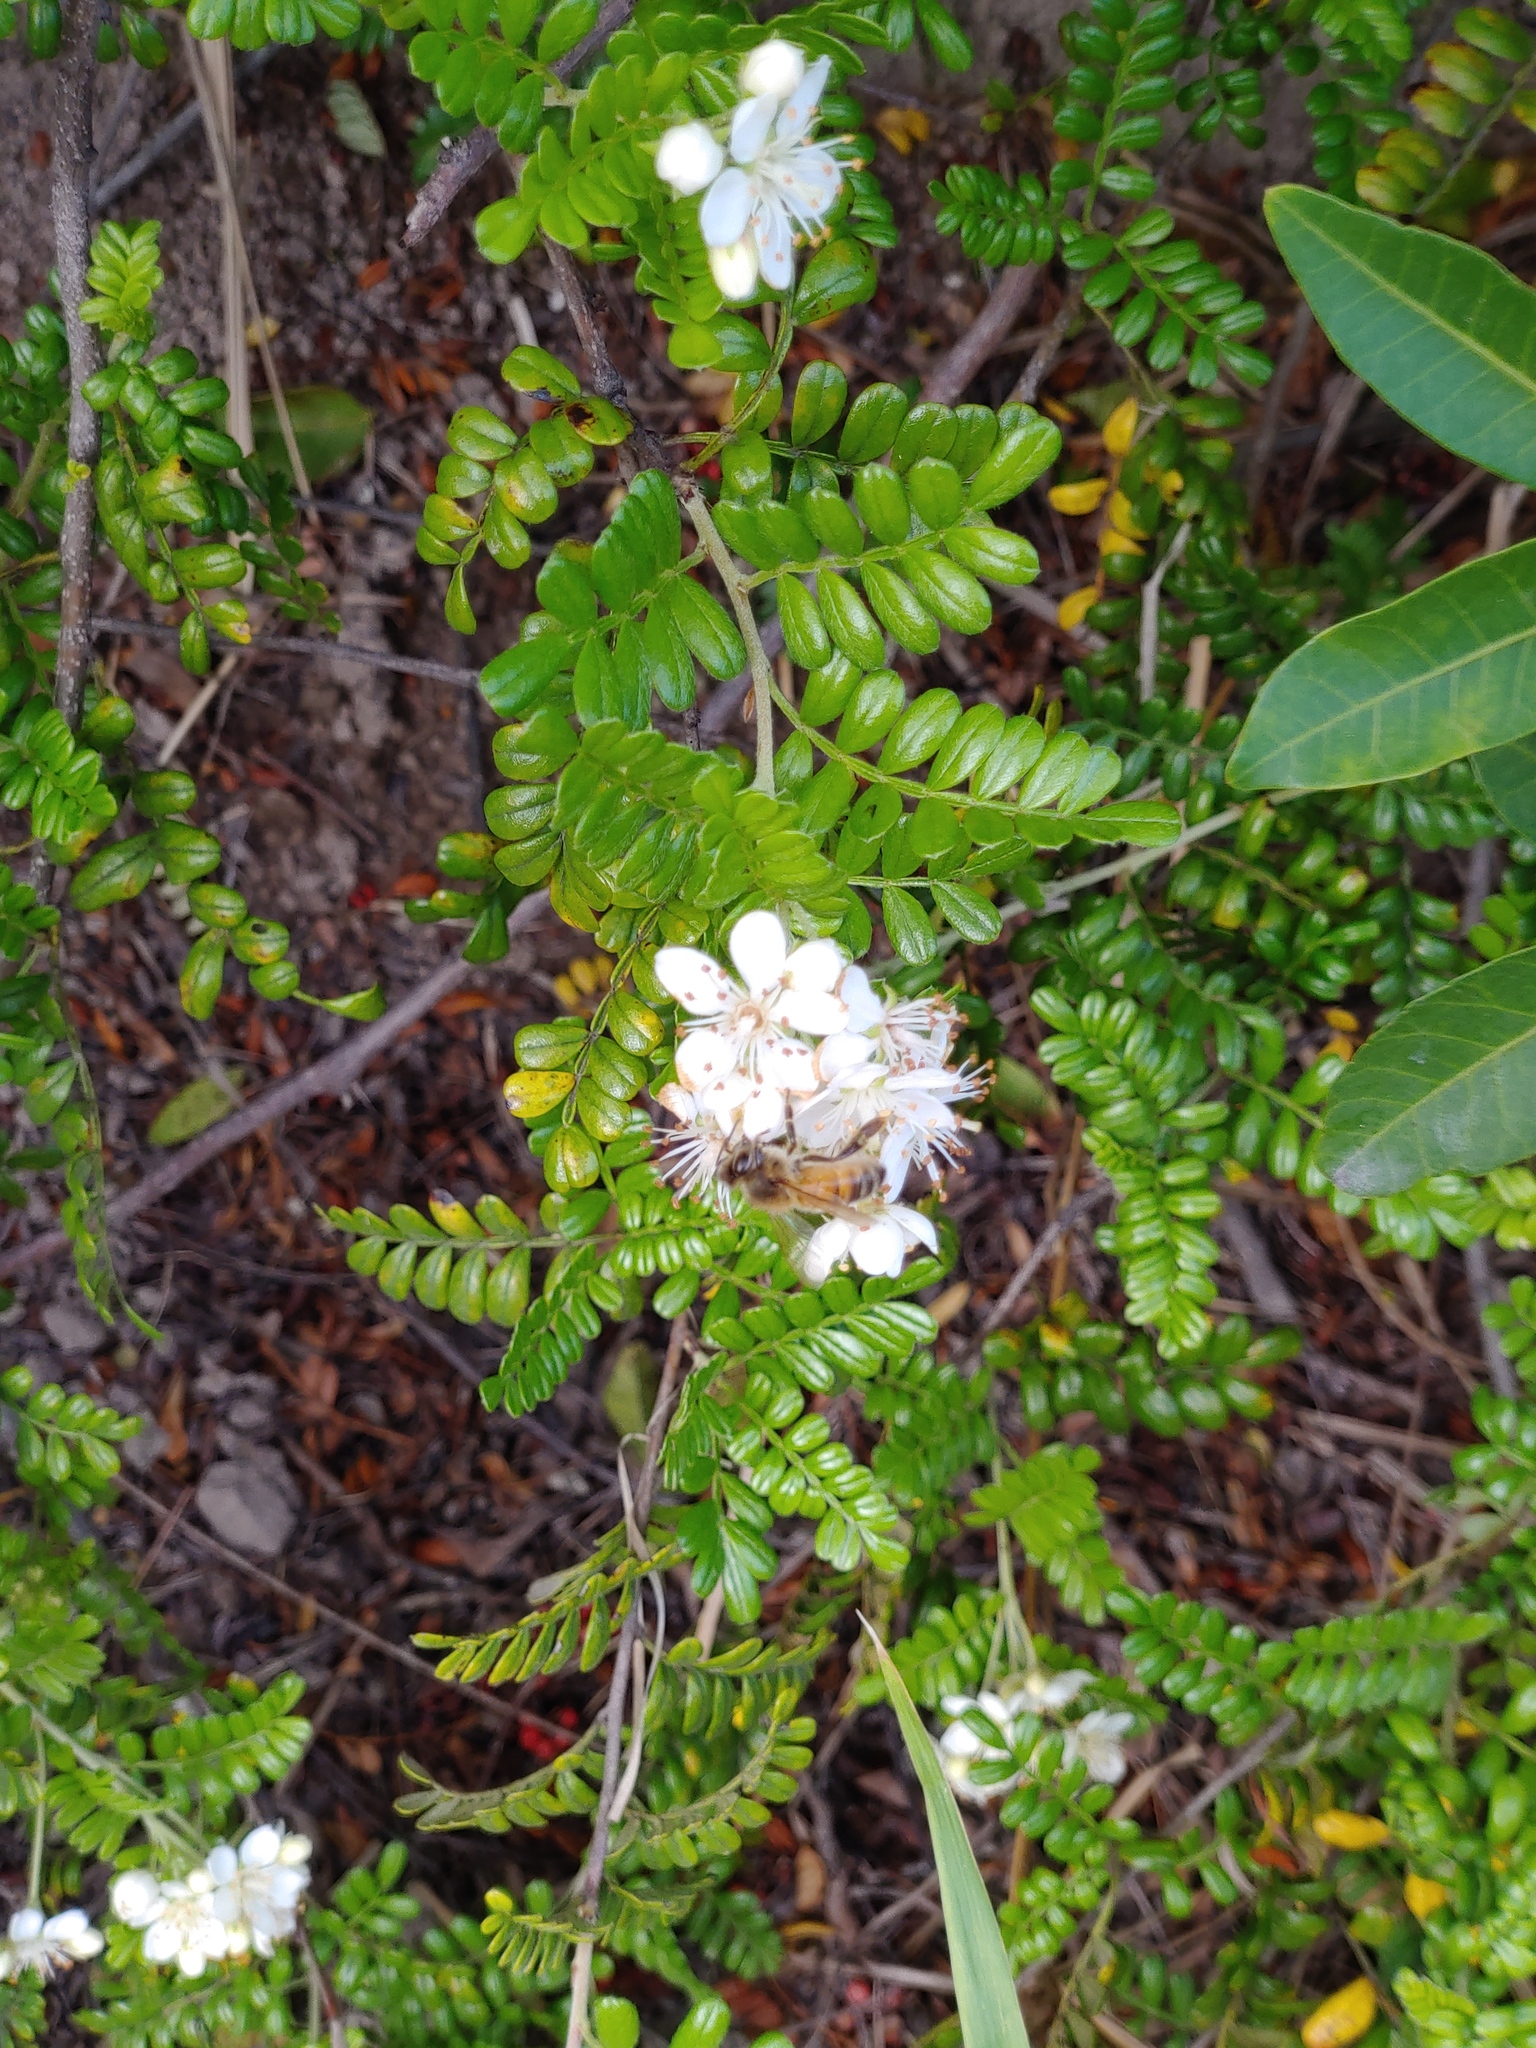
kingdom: Plantae
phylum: Tracheophyta
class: Magnoliopsida
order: Rosales
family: Rosaceae
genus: Osteomeles
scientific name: Osteomeles anthyllidifolia
